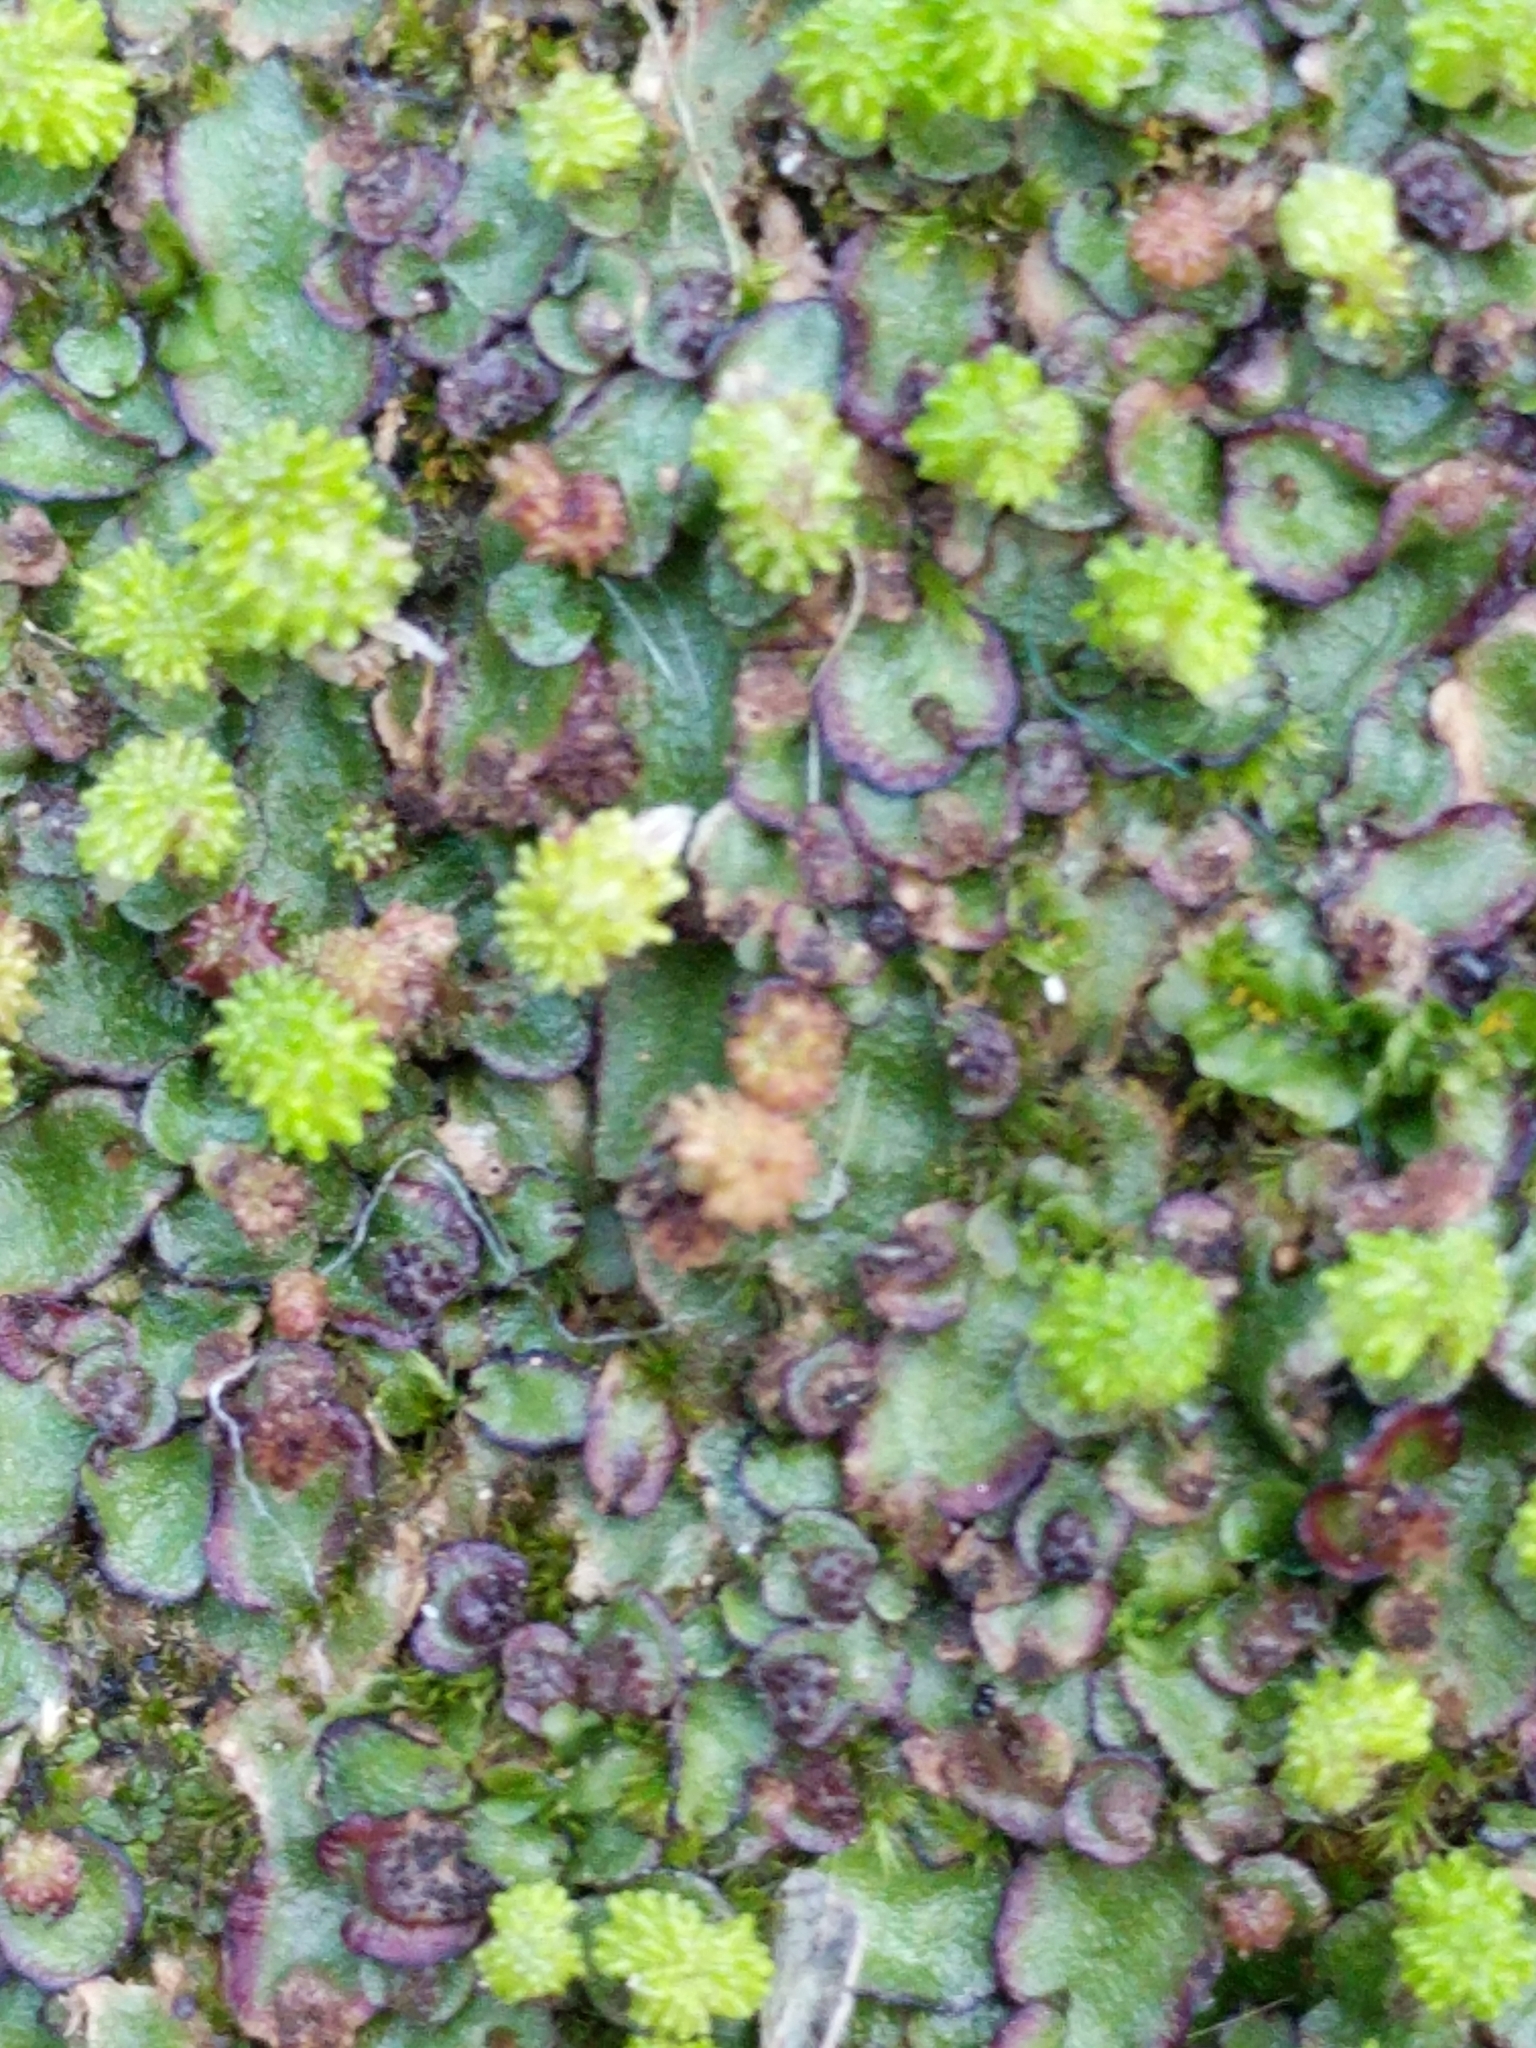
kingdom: Plantae
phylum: Marchantiophyta
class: Marchantiopsida
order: Marchantiales
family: Aytoniaceae
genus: Asterella
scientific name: Asterella echinella
